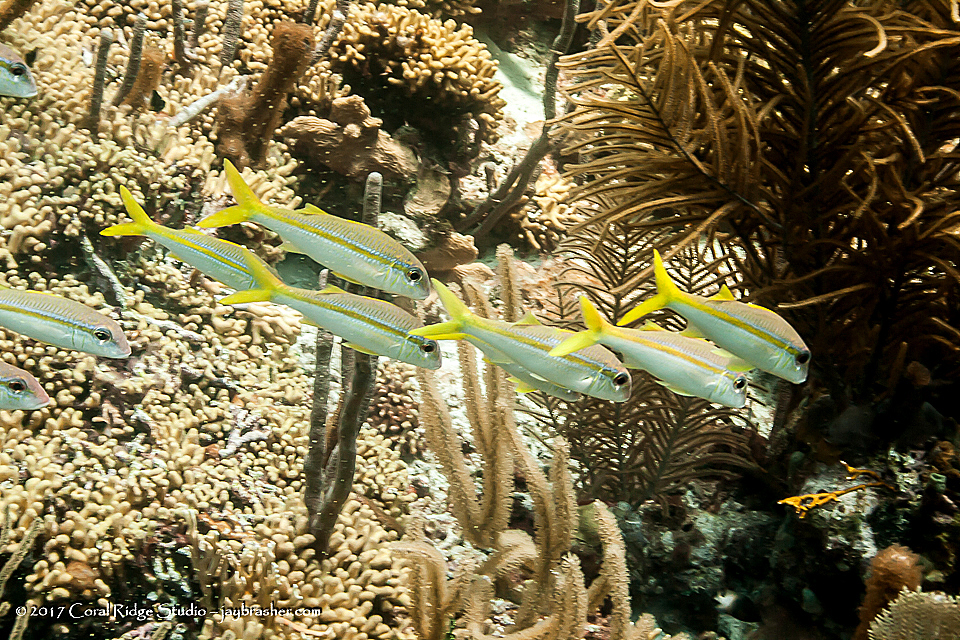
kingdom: Animalia
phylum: Chordata
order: Perciformes
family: Mullidae
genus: Mulloidichthys
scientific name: Mulloidichthys martinicus
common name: Yellow goatfish
